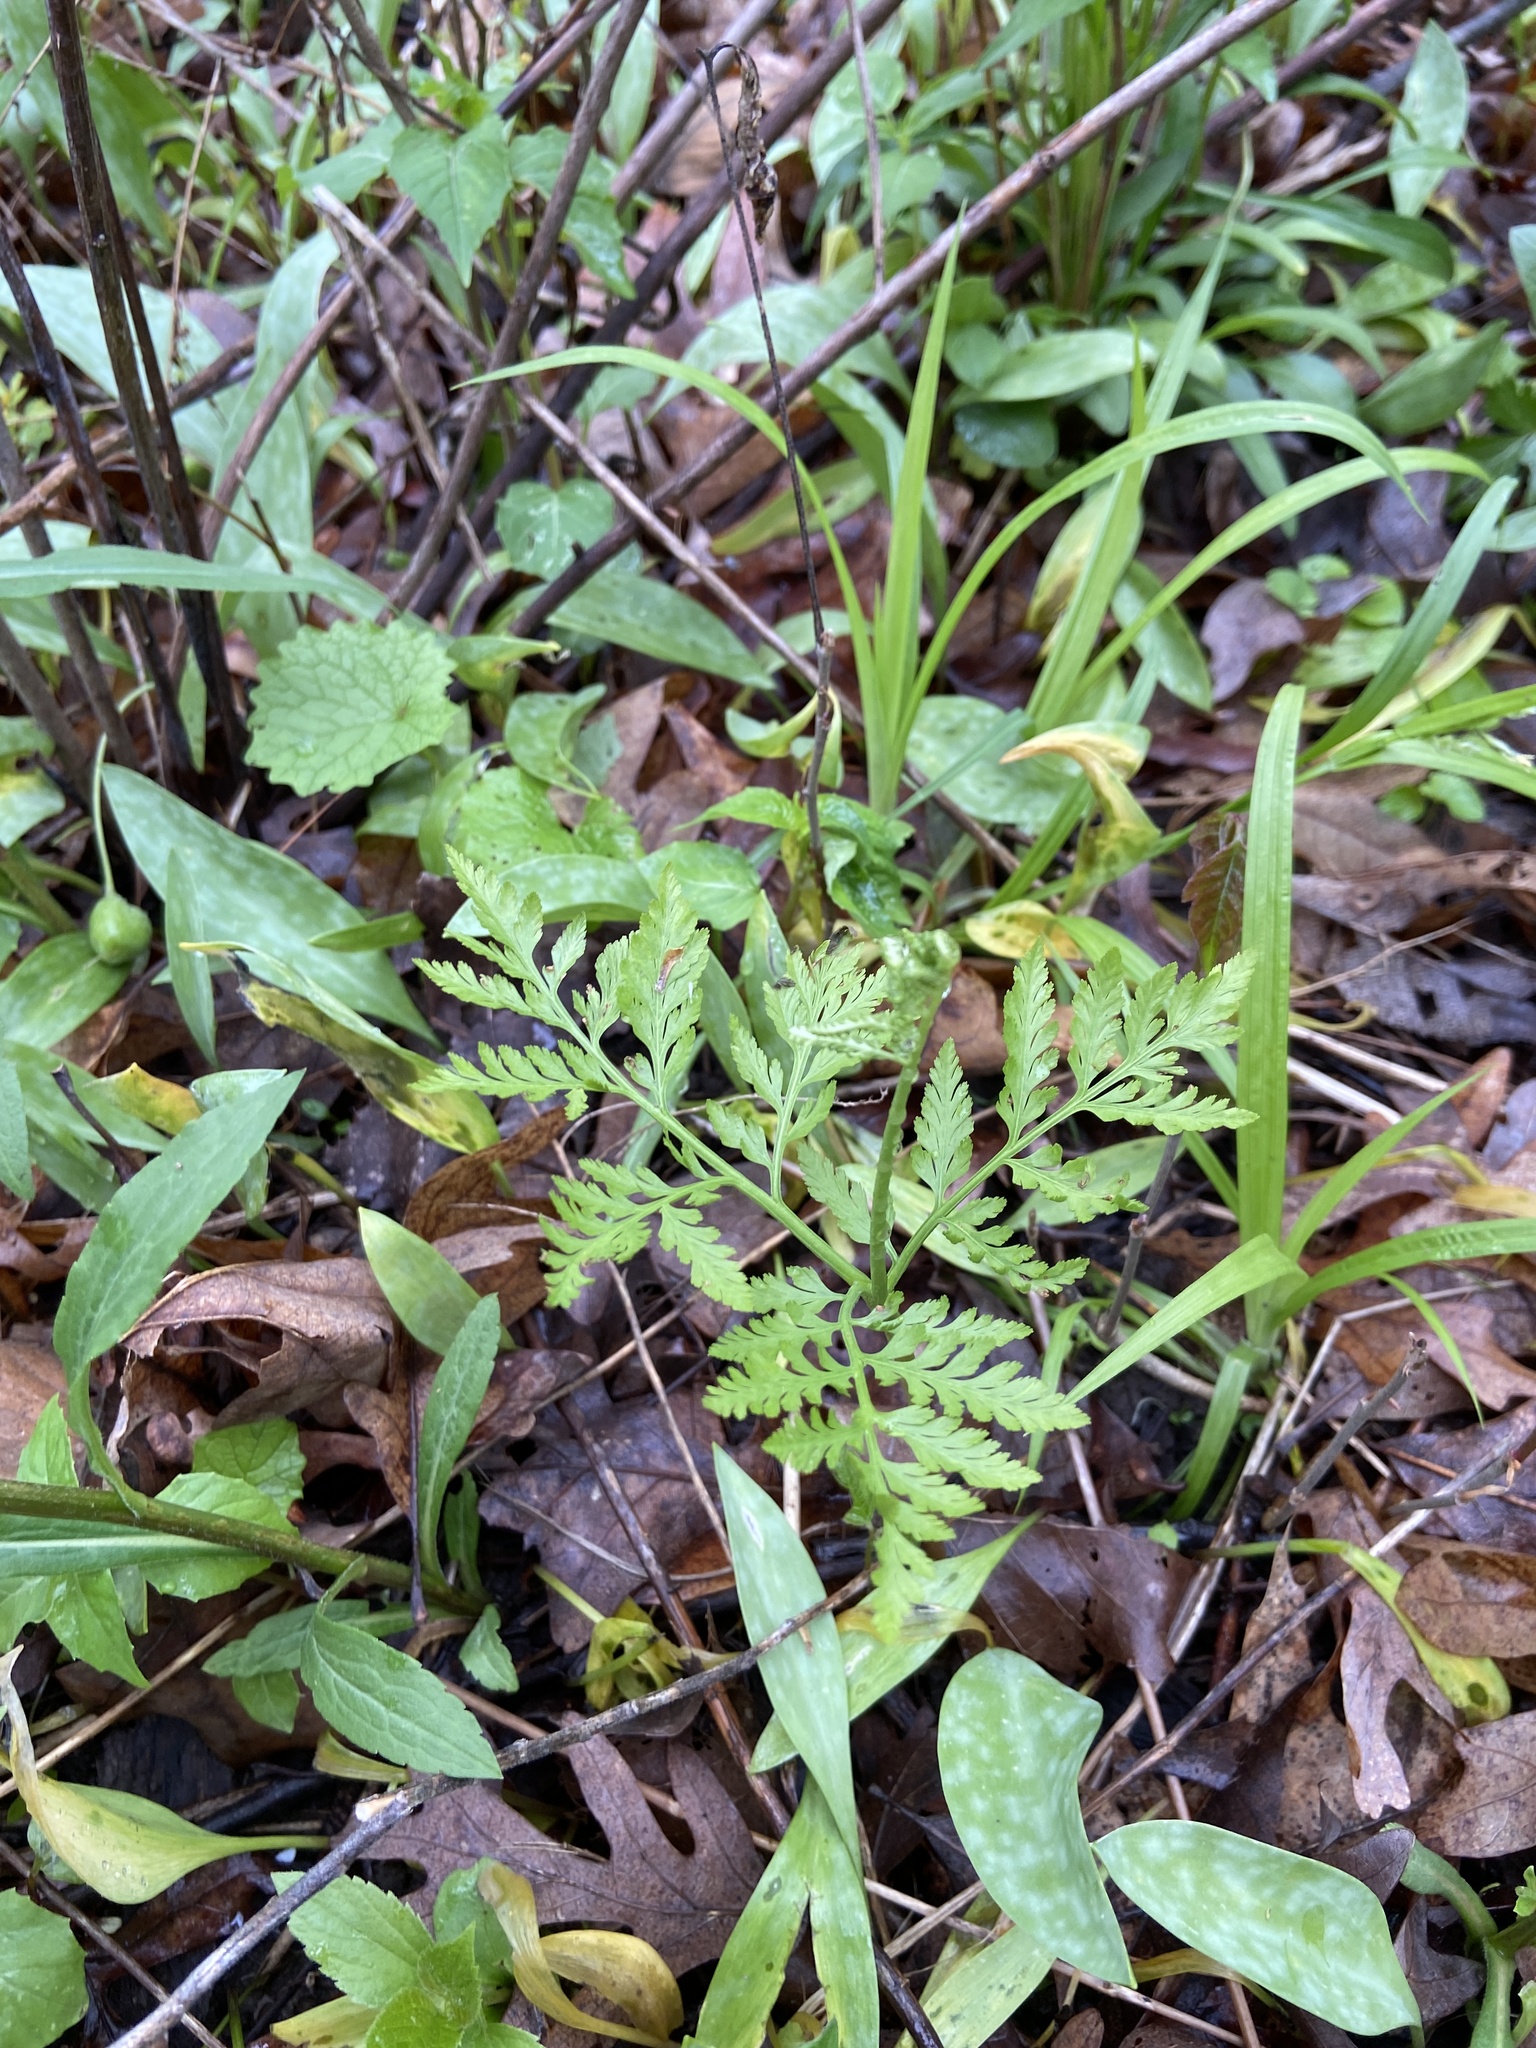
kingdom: Plantae
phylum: Tracheophyta
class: Polypodiopsida
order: Ophioglossales
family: Ophioglossaceae
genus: Botrypus
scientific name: Botrypus virginianus
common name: Common grapefern
